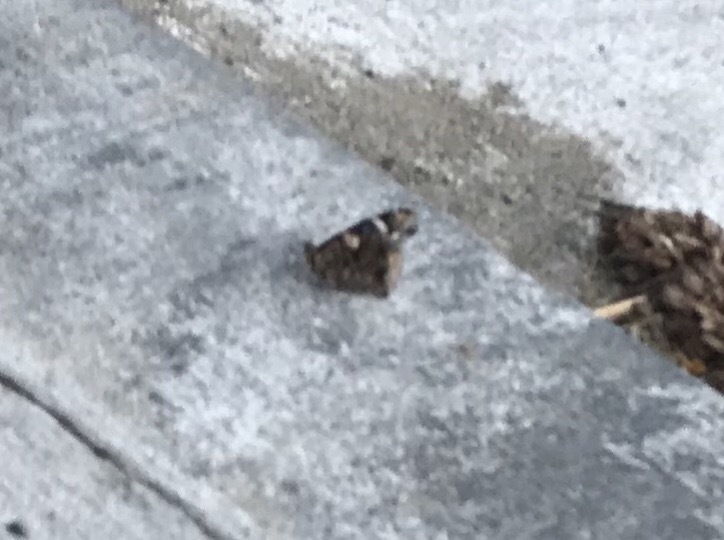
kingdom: Animalia
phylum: Arthropoda
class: Insecta
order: Lepidoptera
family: Nymphalidae
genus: Vanessa
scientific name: Vanessa atalanta
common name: Red admiral
